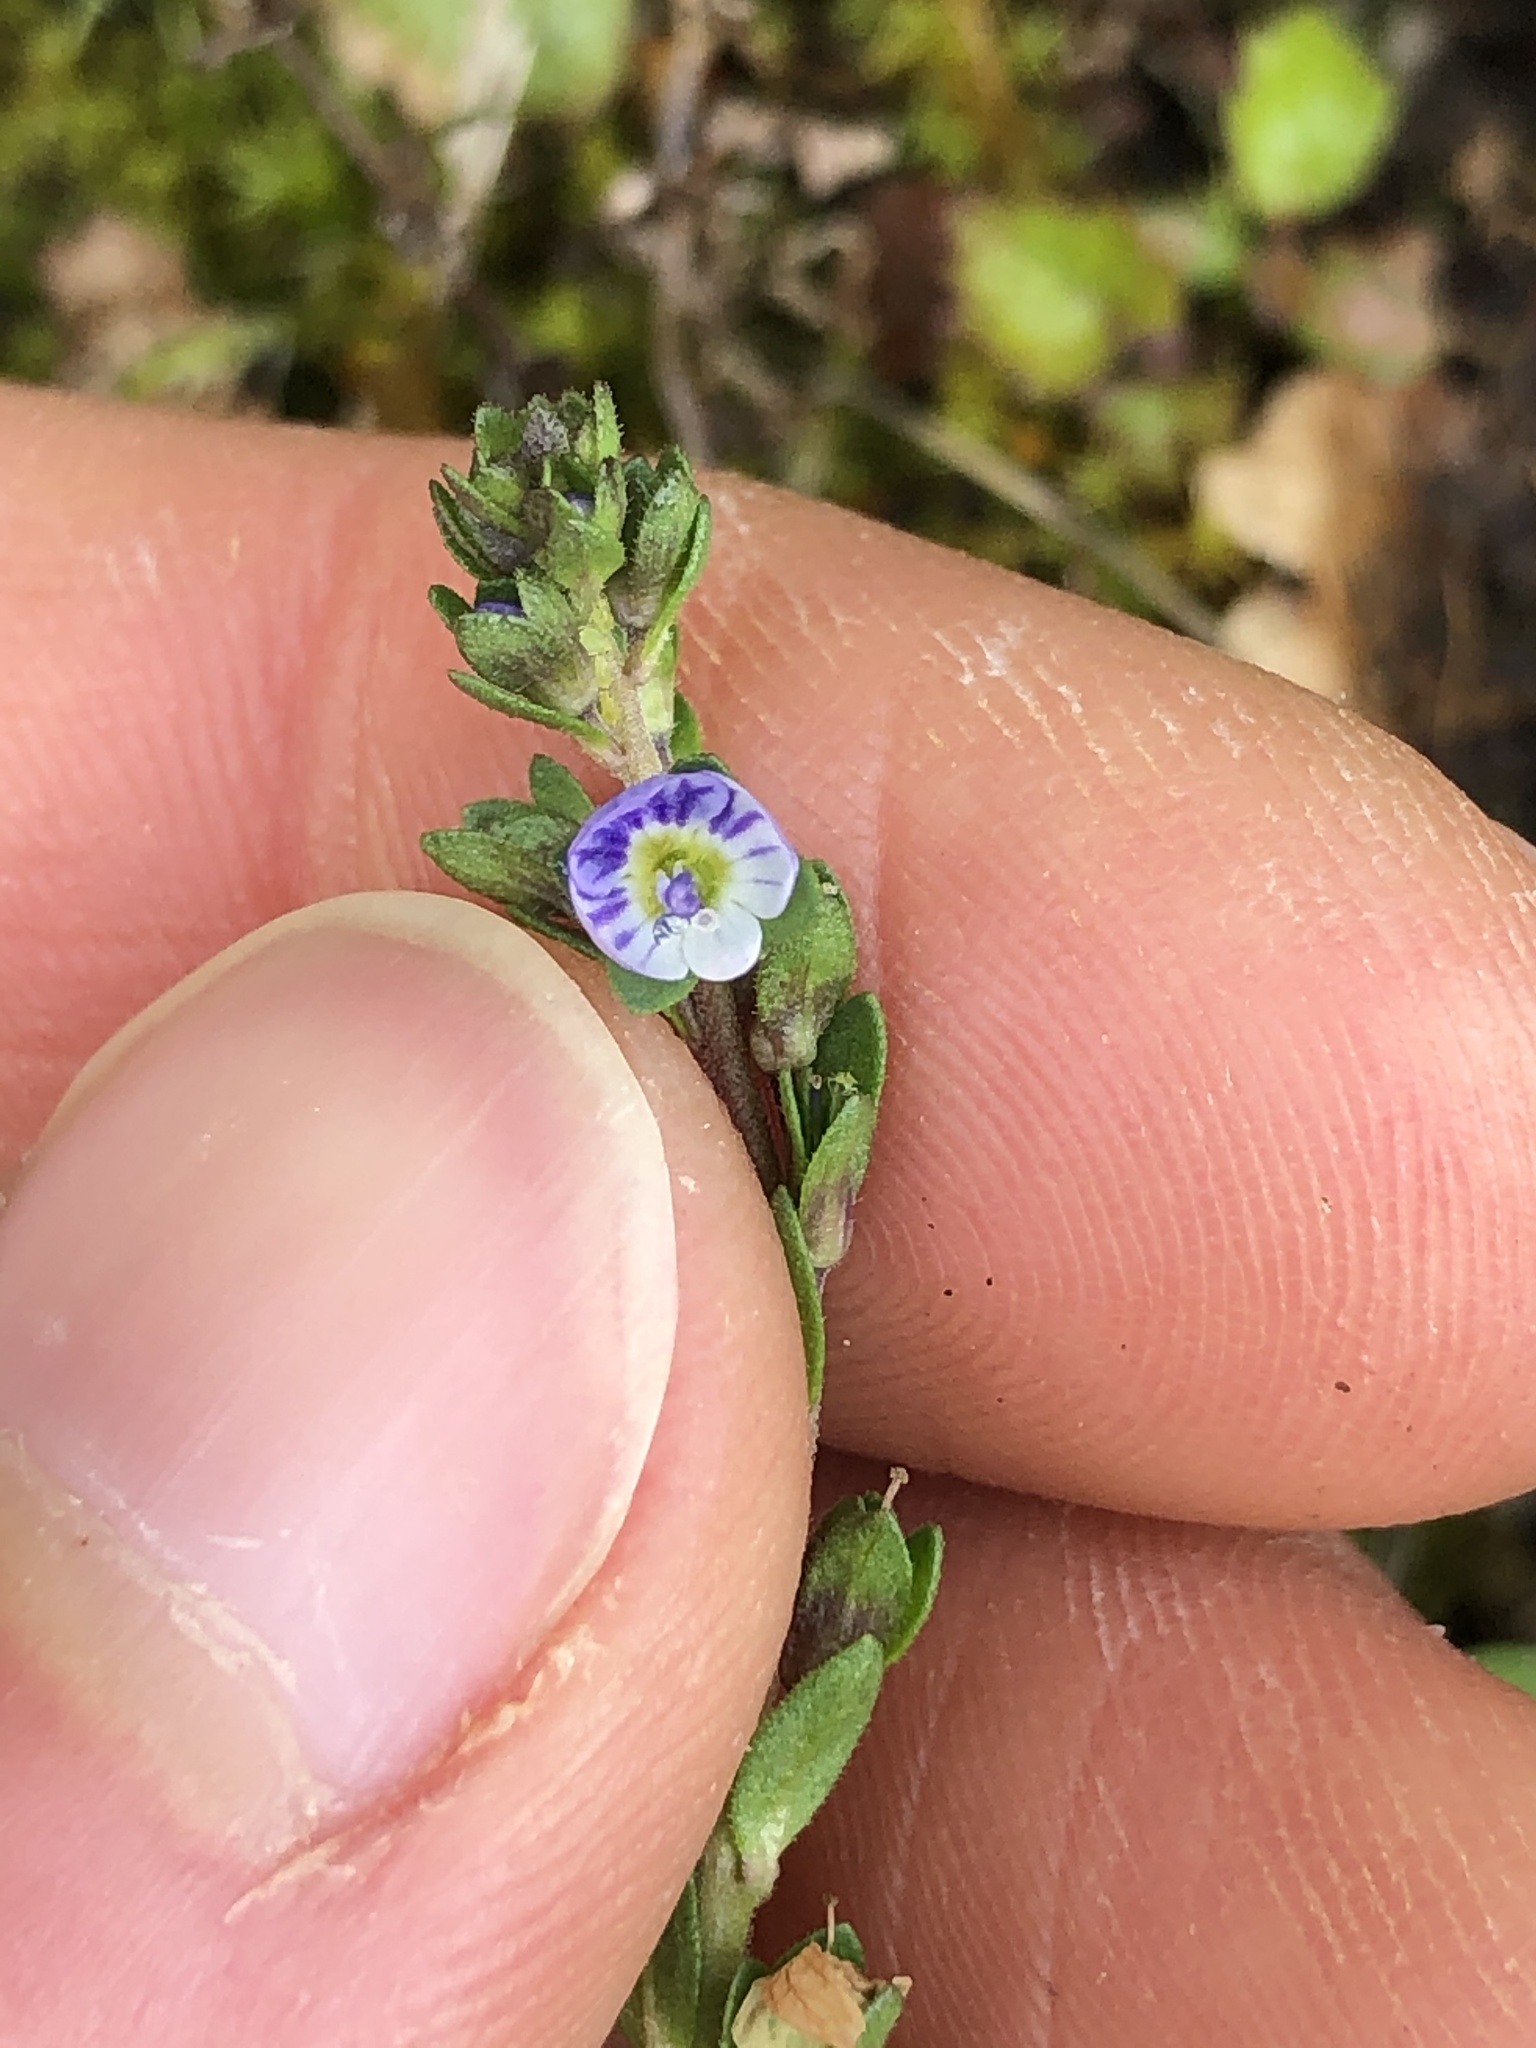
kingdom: Plantae
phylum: Tracheophyta
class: Magnoliopsida
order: Lamiales
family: Plantaginaceae
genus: Veronica
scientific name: Veronica serpyllifolia
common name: Thyme-leaved speedwell
